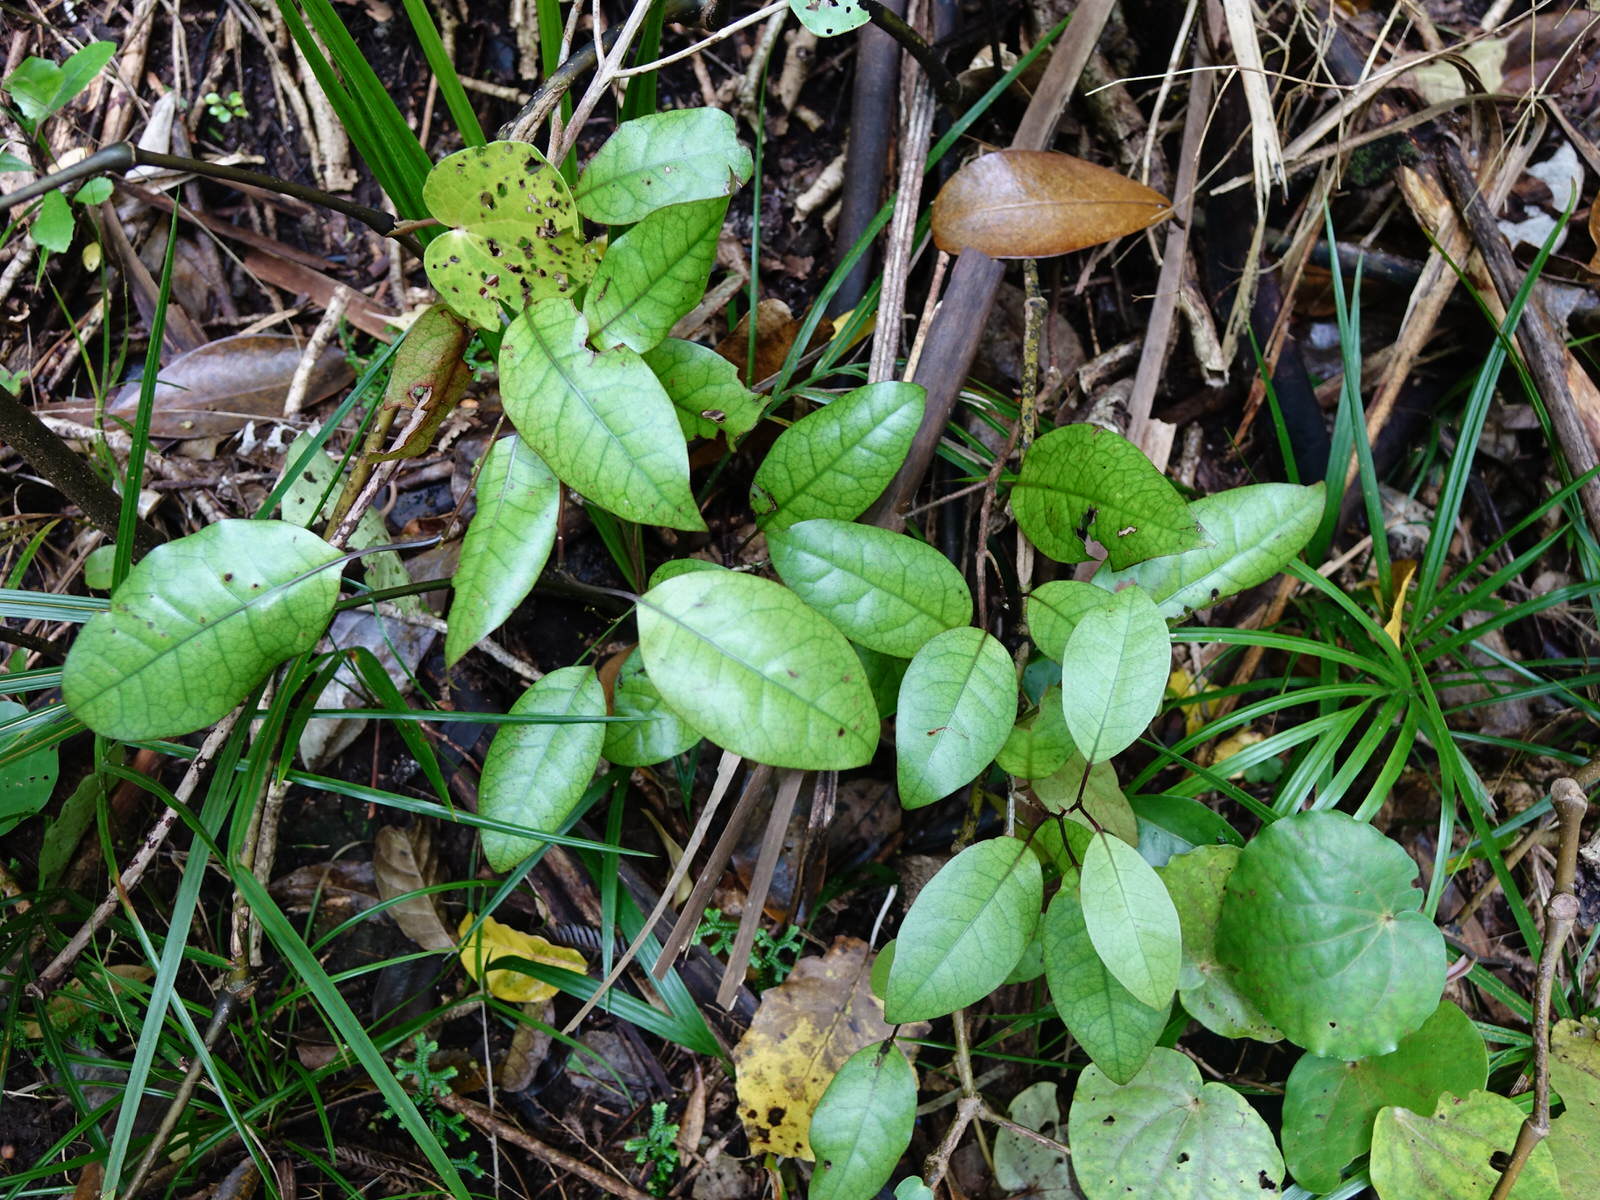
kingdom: Plantae
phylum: Tracheophyta
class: Magnoliopsida
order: Laurales
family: Lauraceae
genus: Litsea
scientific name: Litsea calicaris
